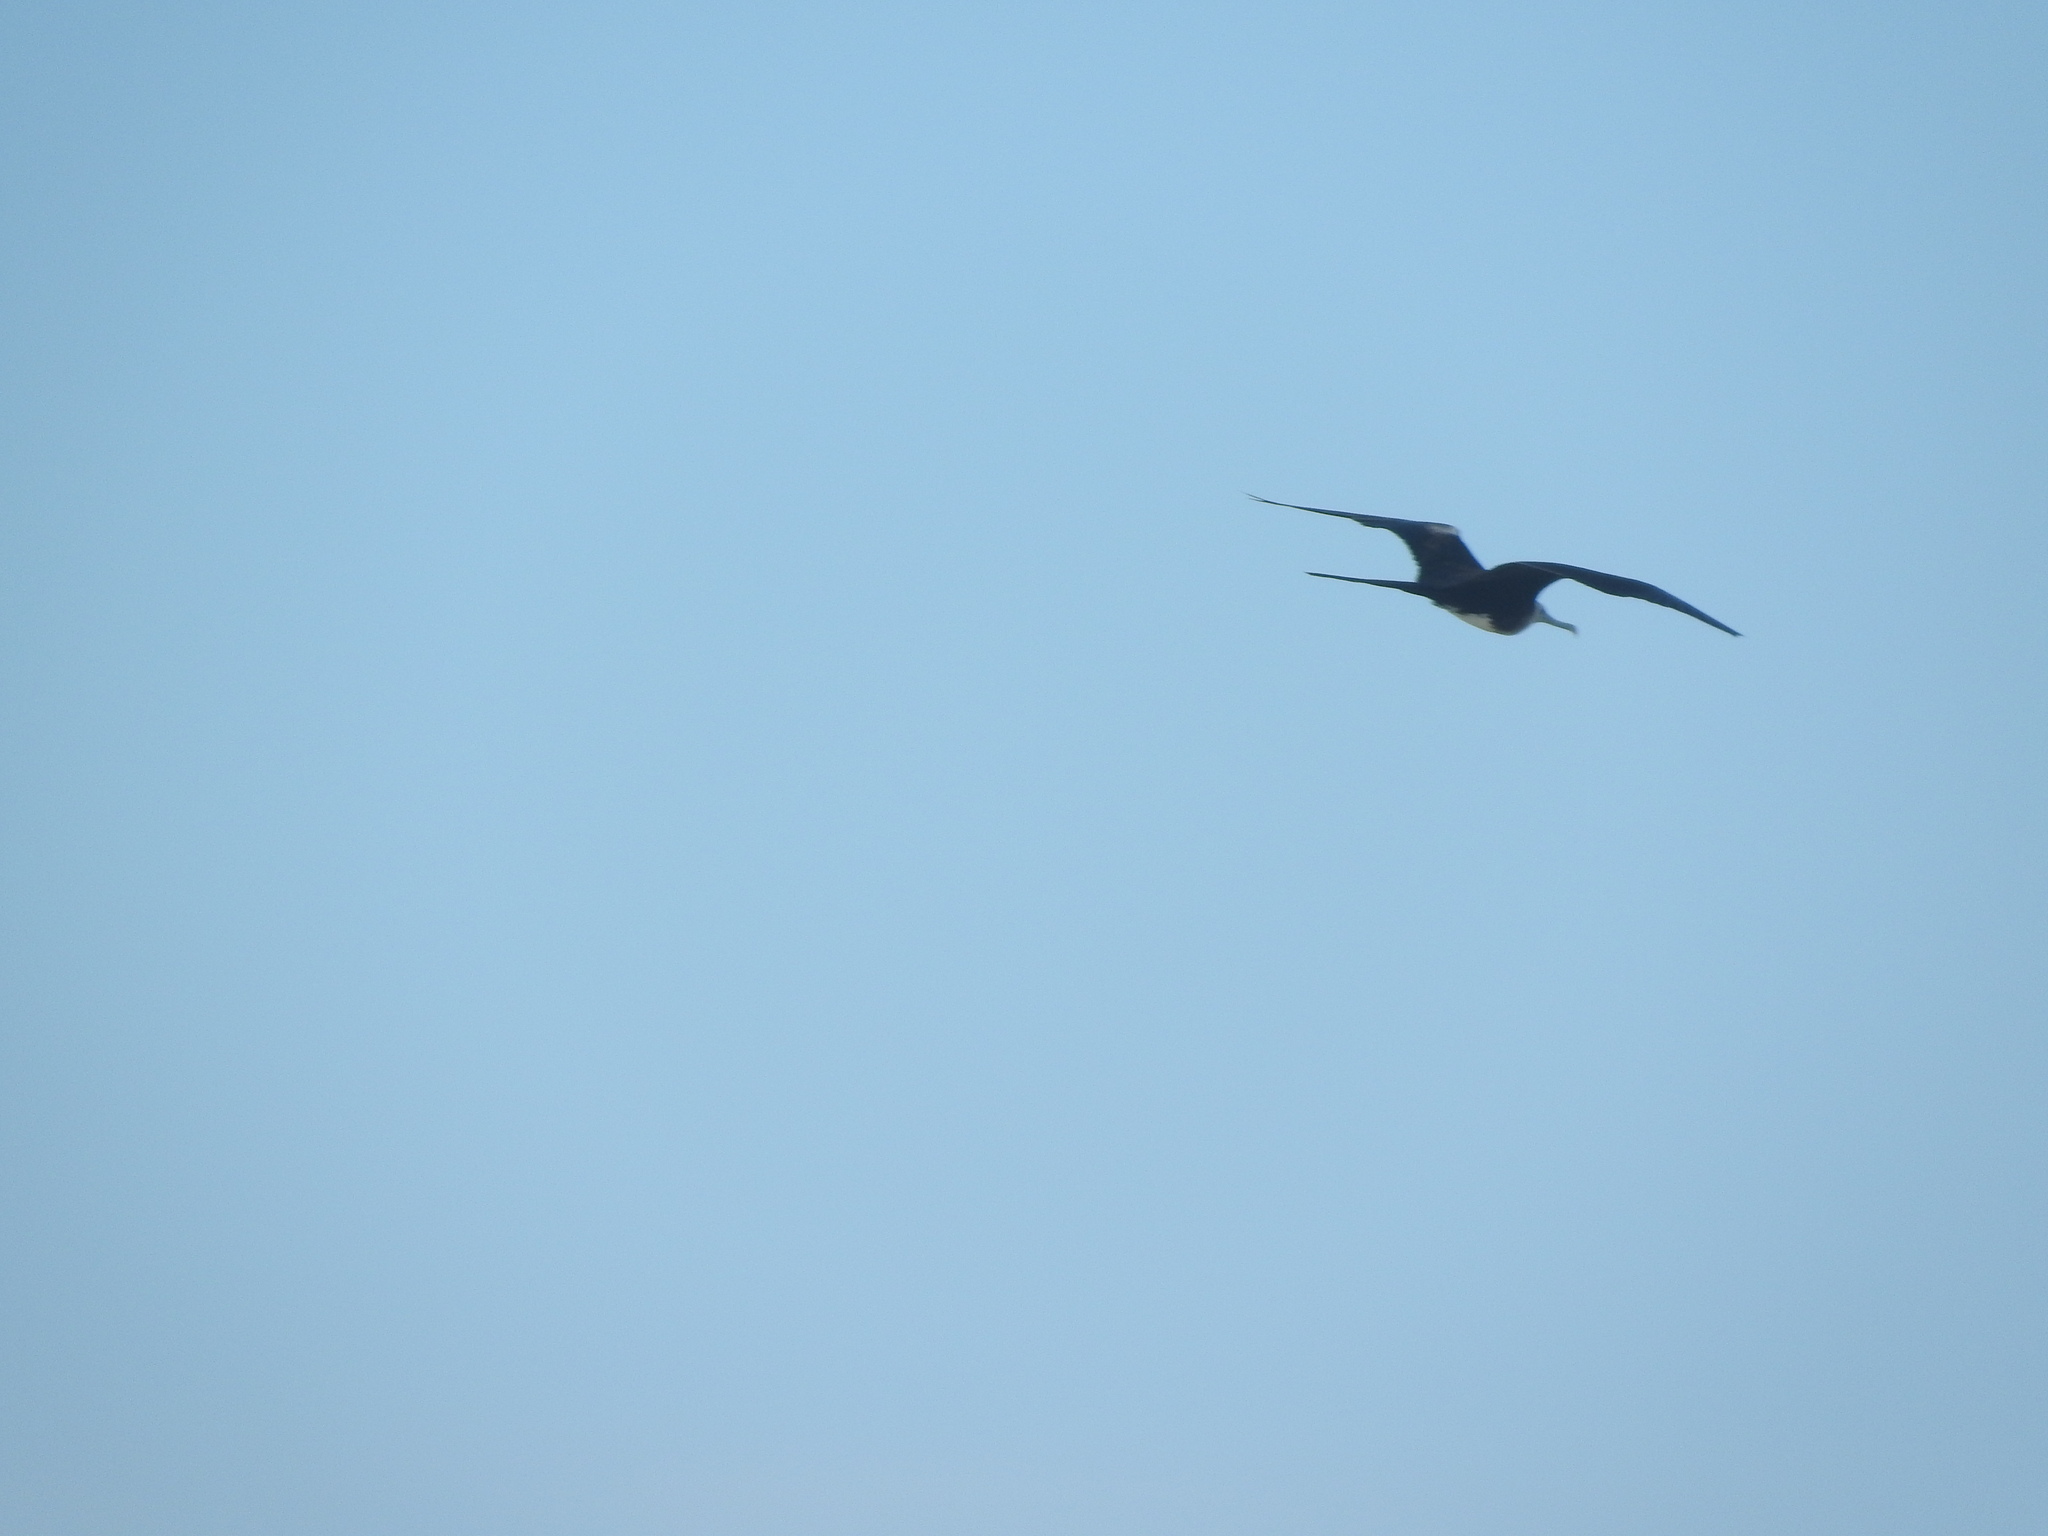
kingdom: Animalia
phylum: Chordata
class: Aves
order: Suliformes
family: Fregatidae
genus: Fregata
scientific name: Fregata magnificens
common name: Magnificent frigatebird
